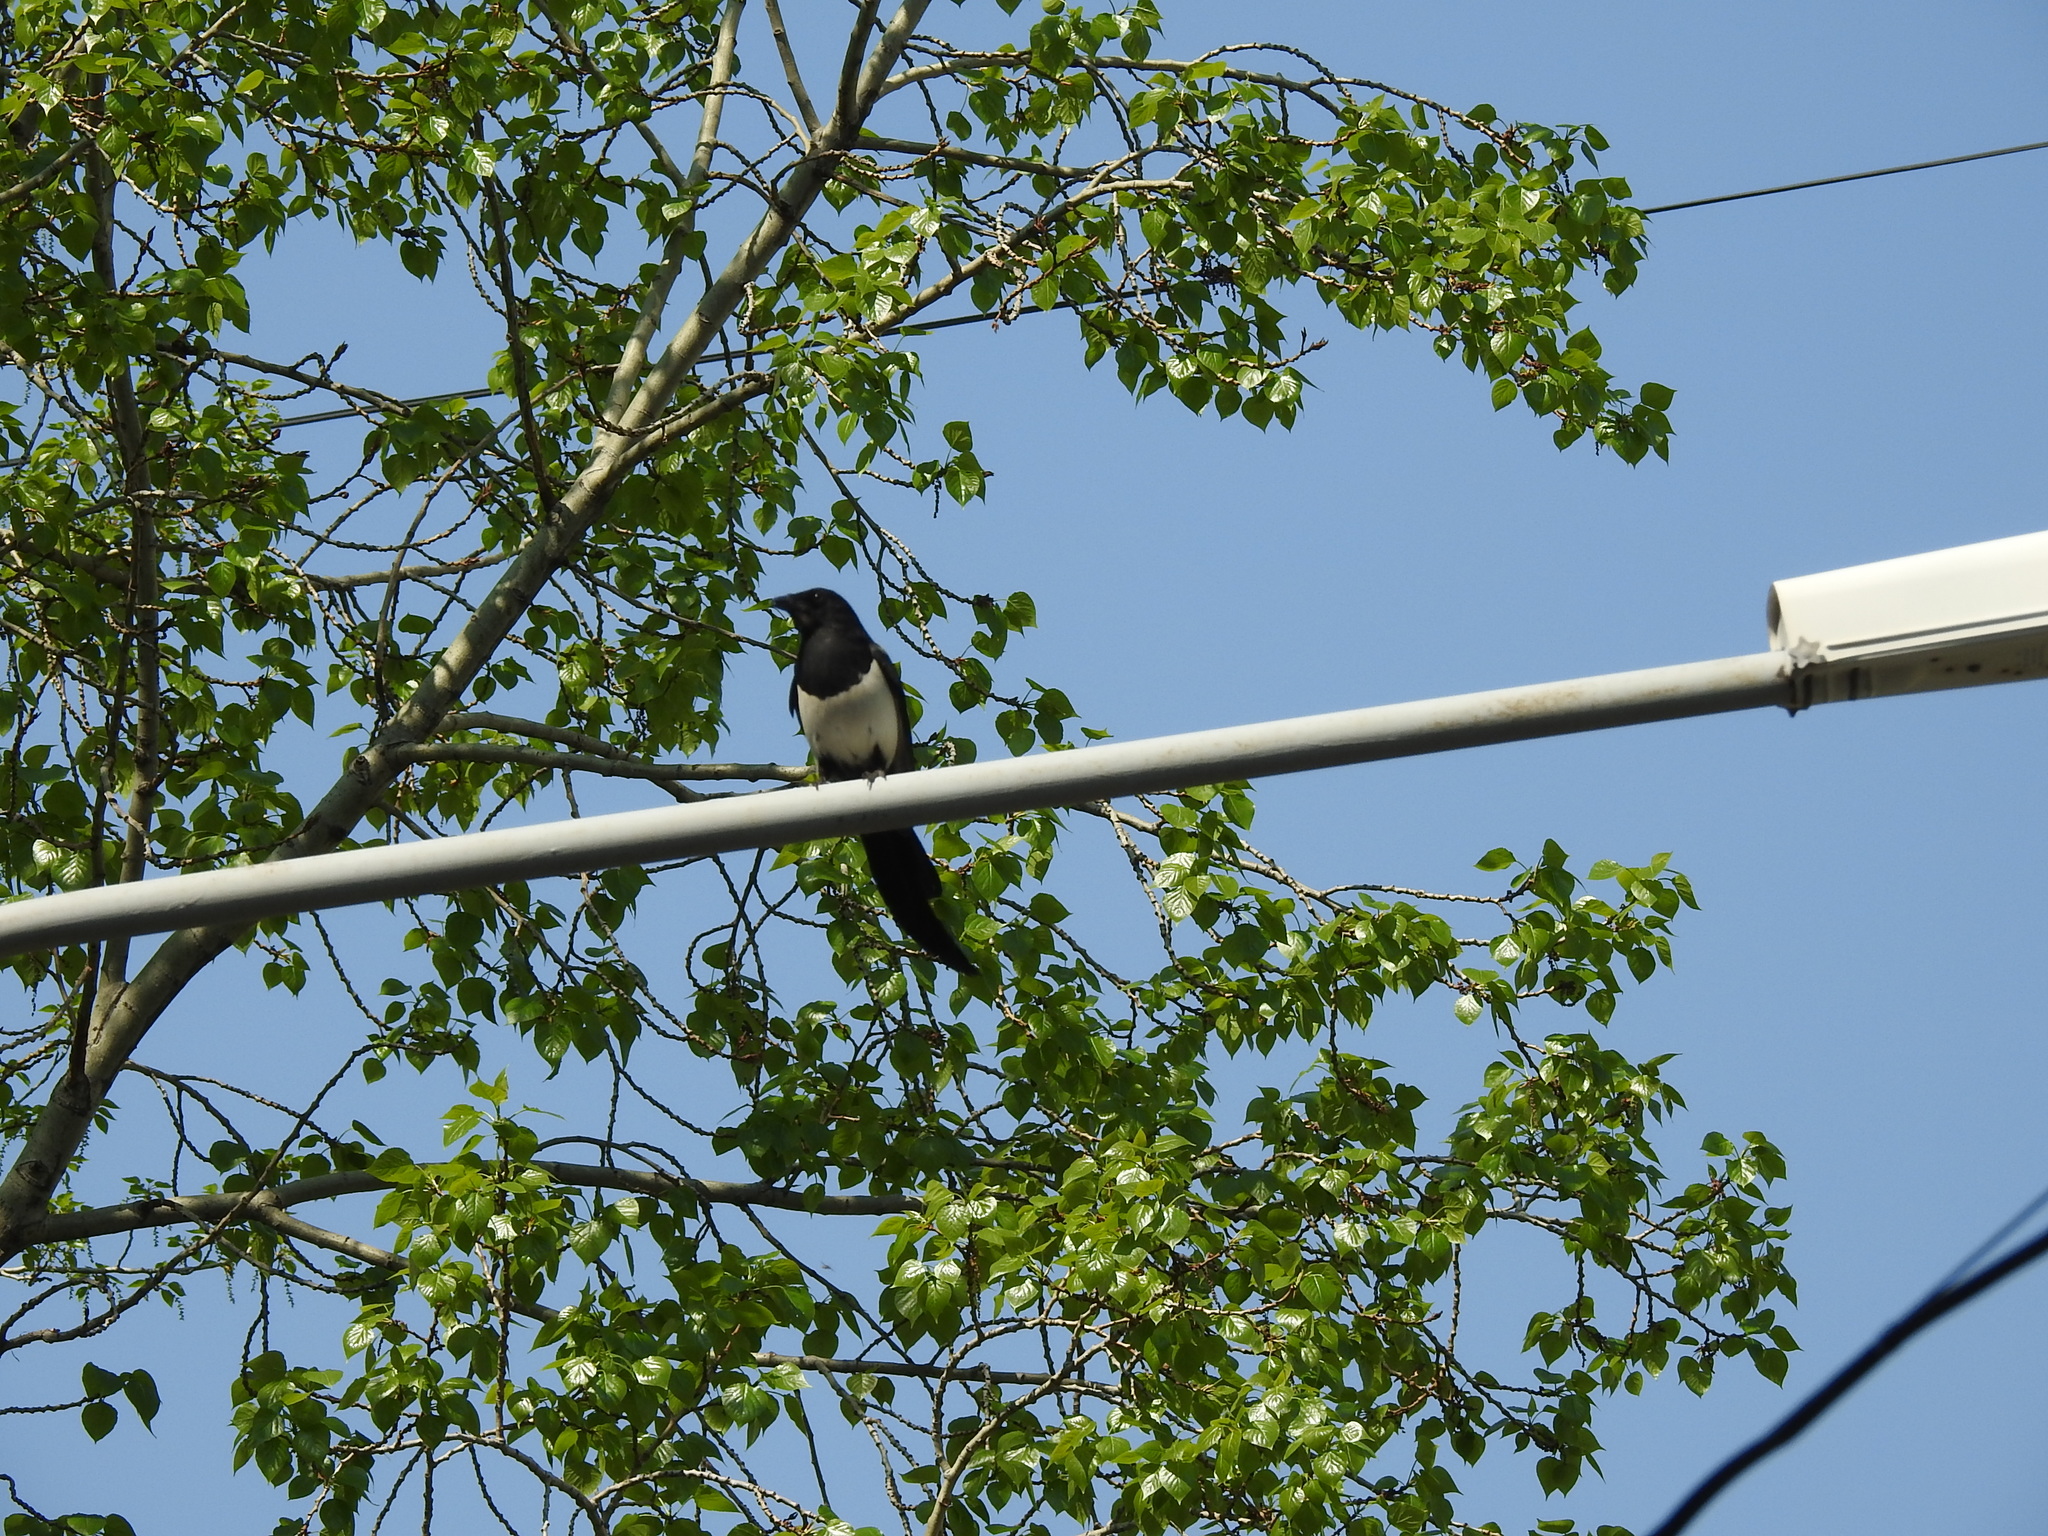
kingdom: Animalia
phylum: Chordata
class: Aves
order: Passeriformes
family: Corvidae
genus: Pica
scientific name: Pica pica
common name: Eurasian magpie
